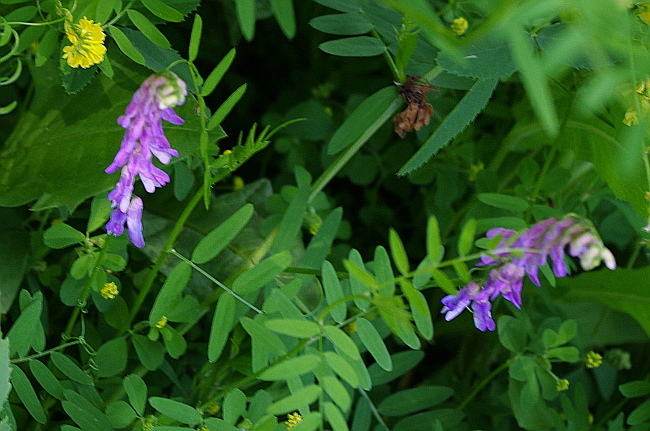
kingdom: Plantae
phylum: Tracheophyta
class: Magnoliopsida
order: Fabales
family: Fabaceae
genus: Vicia
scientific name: Vicia cracca
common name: Bird vetch
